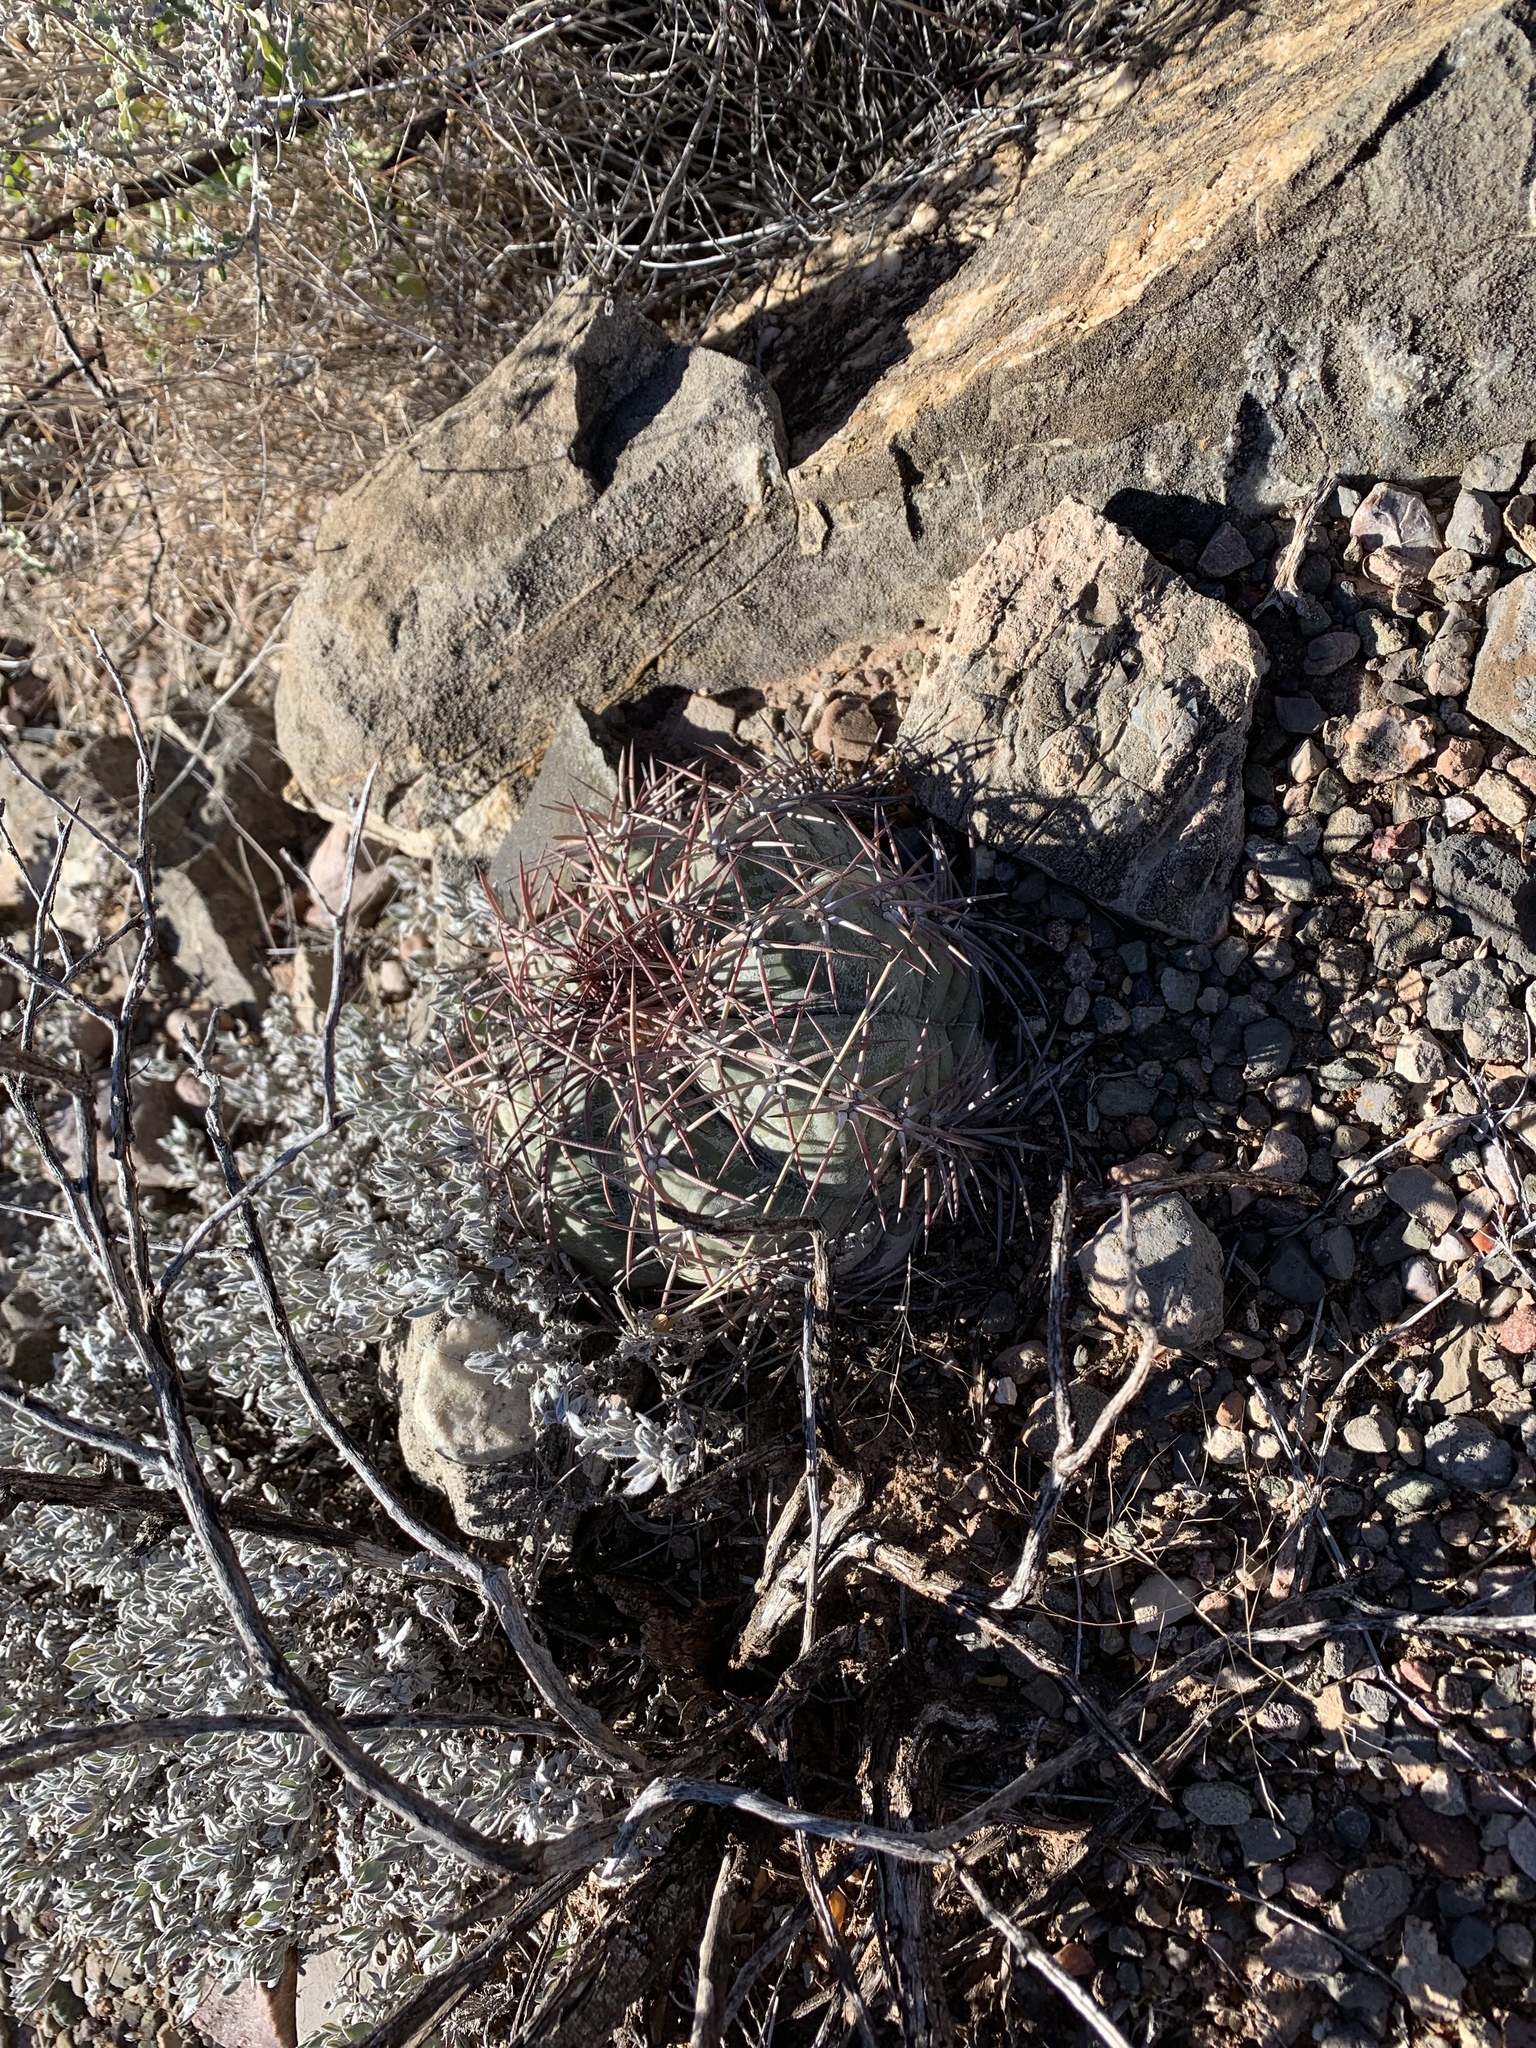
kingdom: Plantae
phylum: Tracheophyta
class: Magnoliopsida
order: Caryophyllales
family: Cactaceae
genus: Echinocactus
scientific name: Echinocactus horizonthalonius
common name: Devilshead
